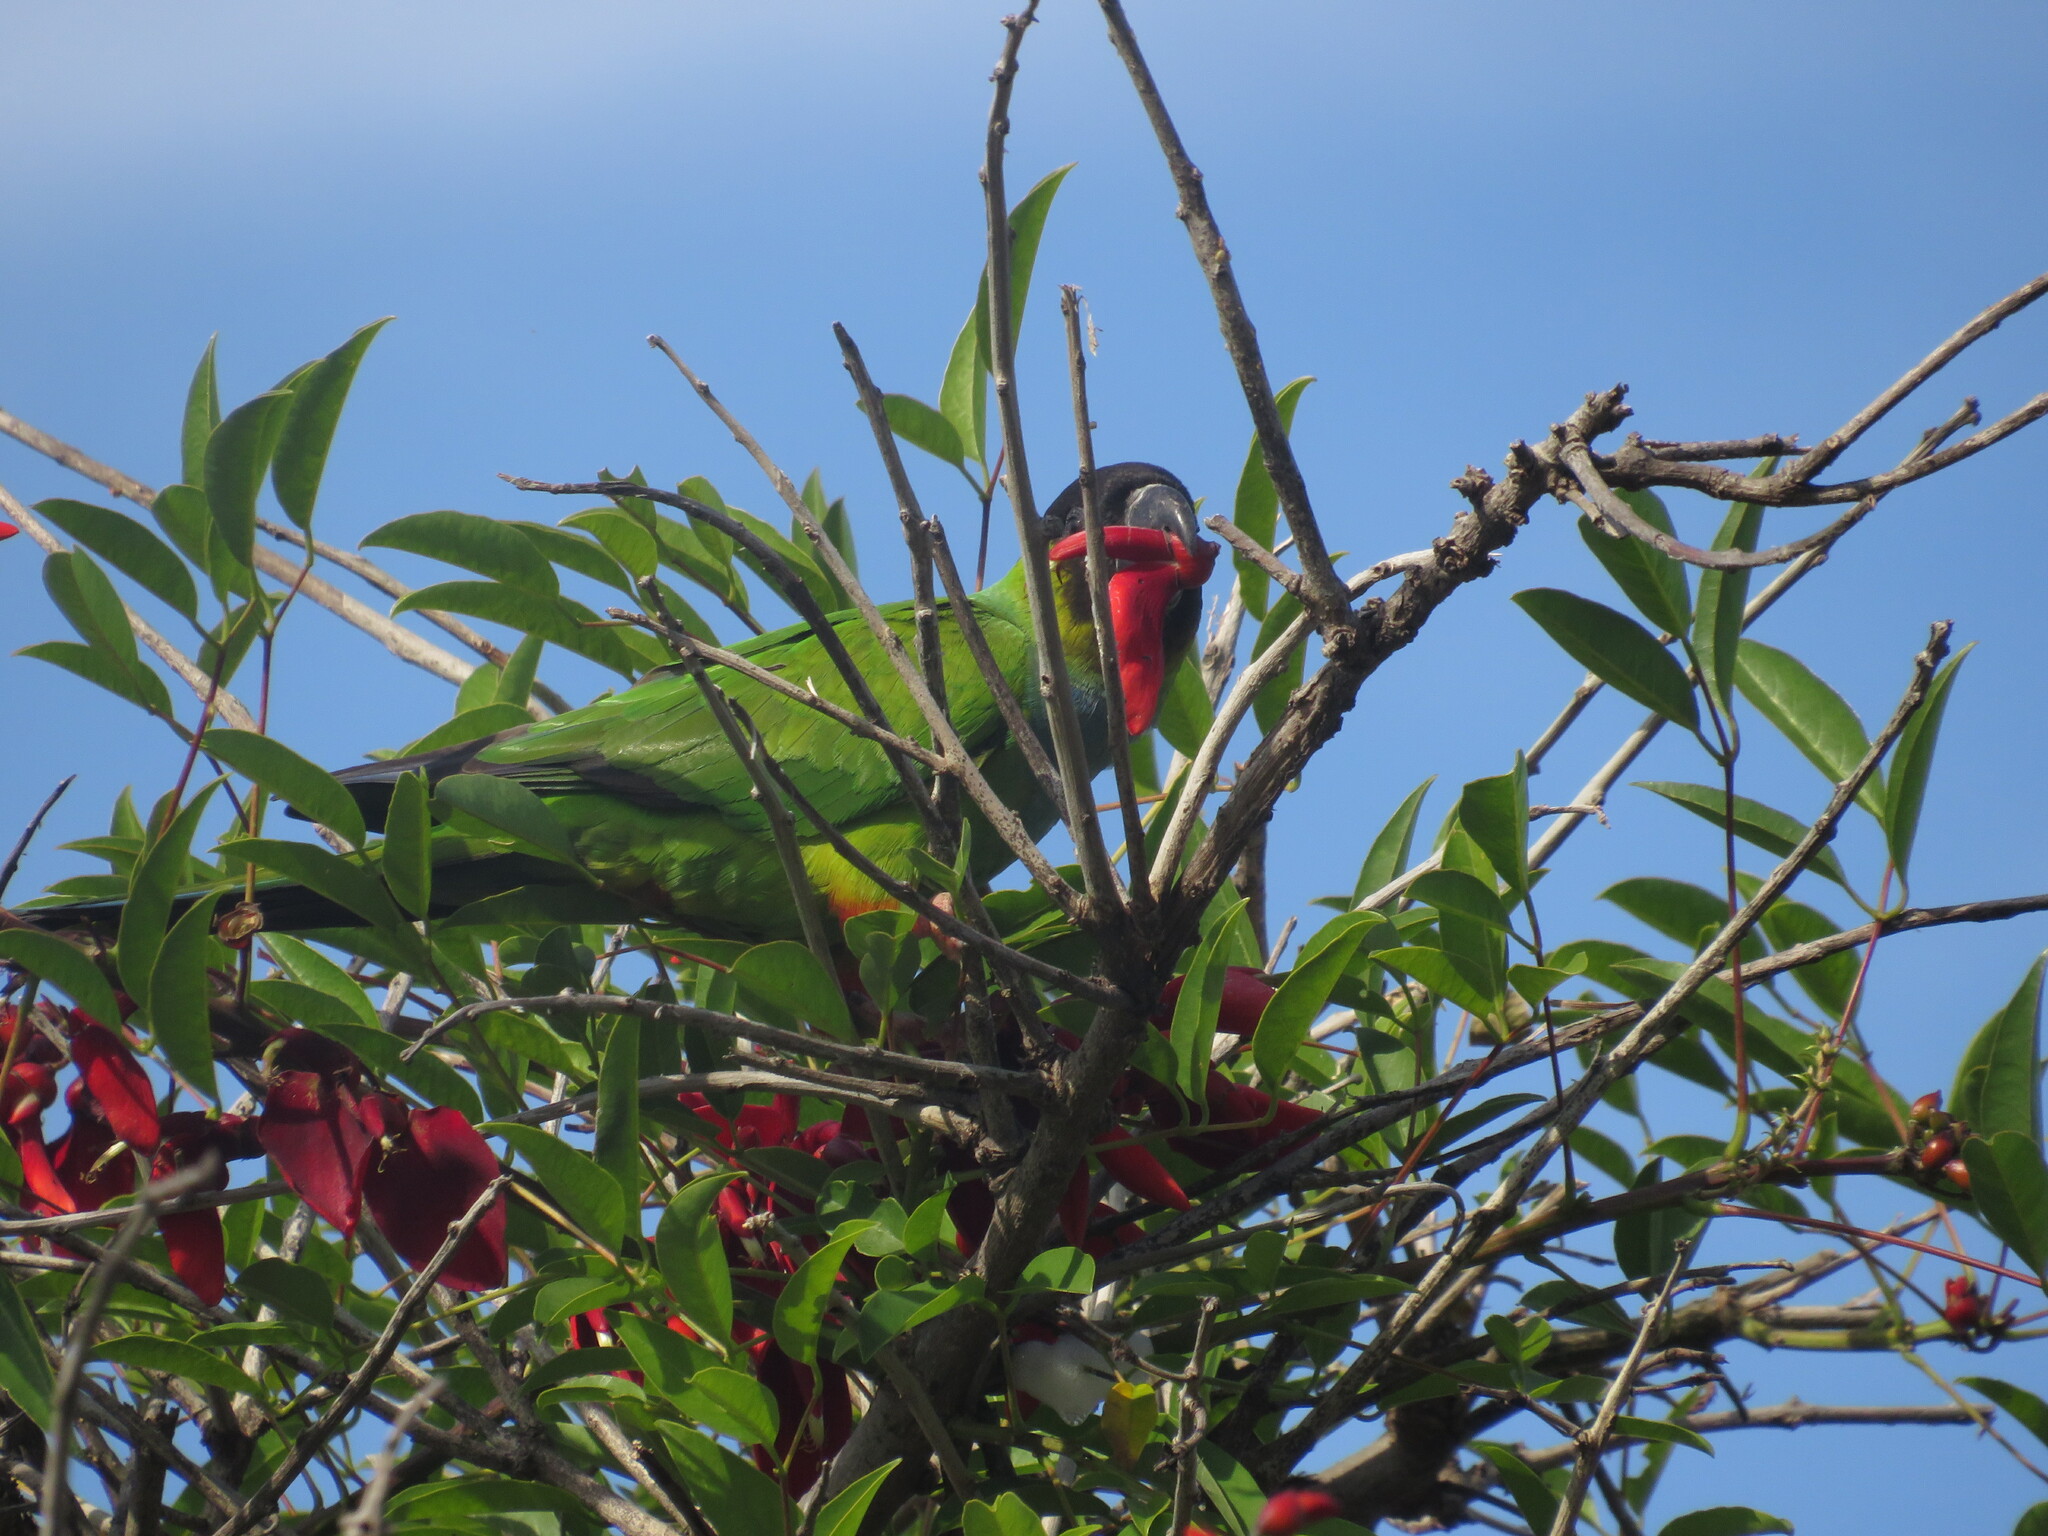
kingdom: Animalia
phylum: Chordata
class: Aves
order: Psittaciformes
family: Psittacidae
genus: Nandayus
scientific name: Nandayus nenday
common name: Nanday parakeet
